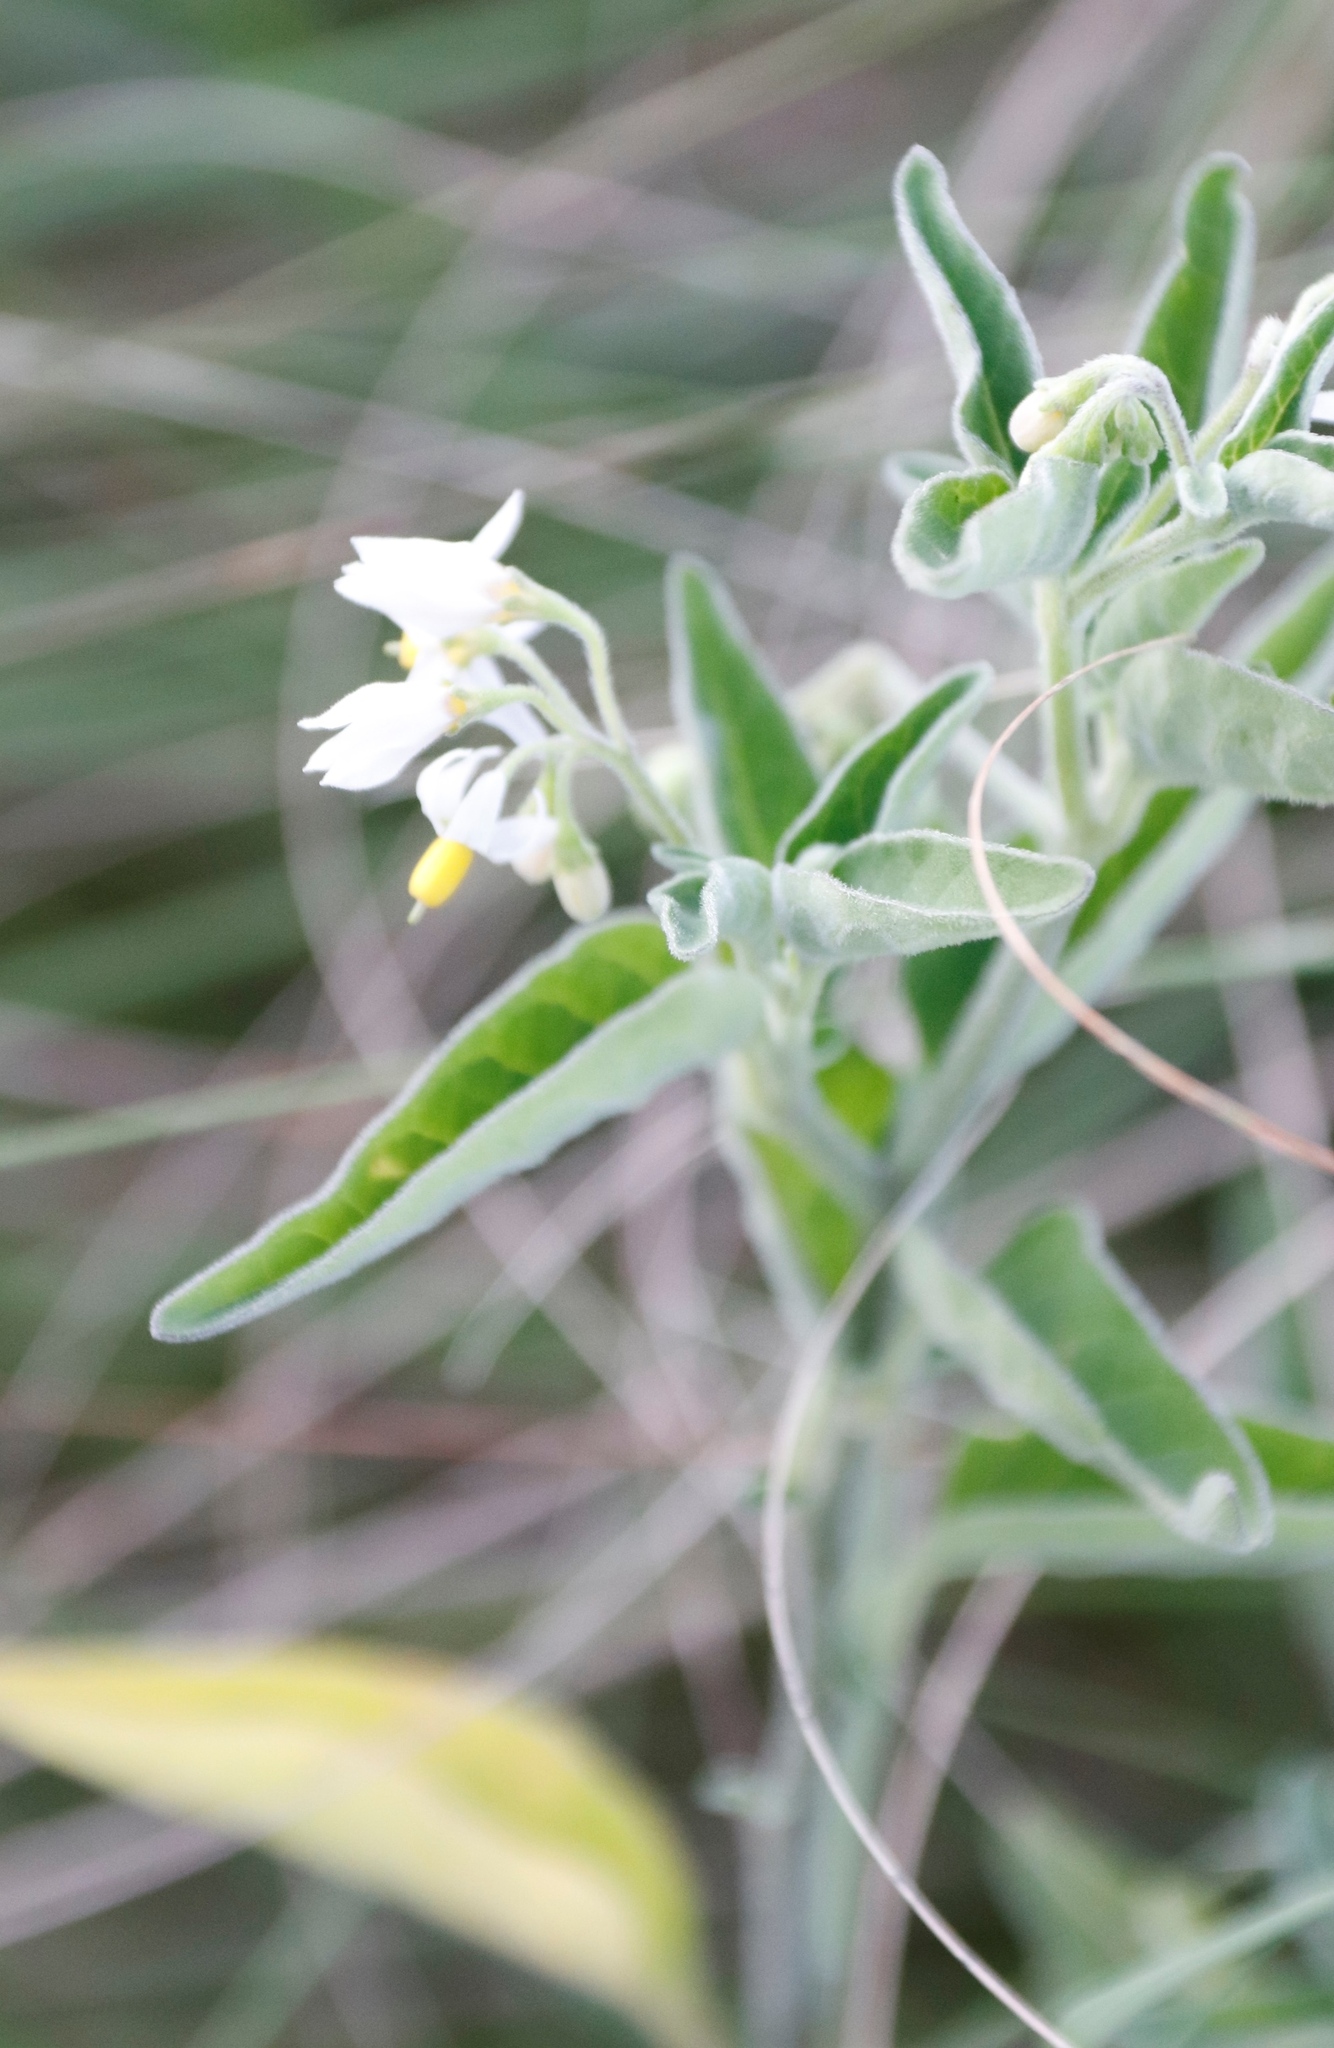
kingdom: Plantae
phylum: Tracheophyta
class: Magnoliopsida
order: Solanales
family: Solanaceae
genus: Solanum
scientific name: Solanum chenopodioides
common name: Tall nightshade
